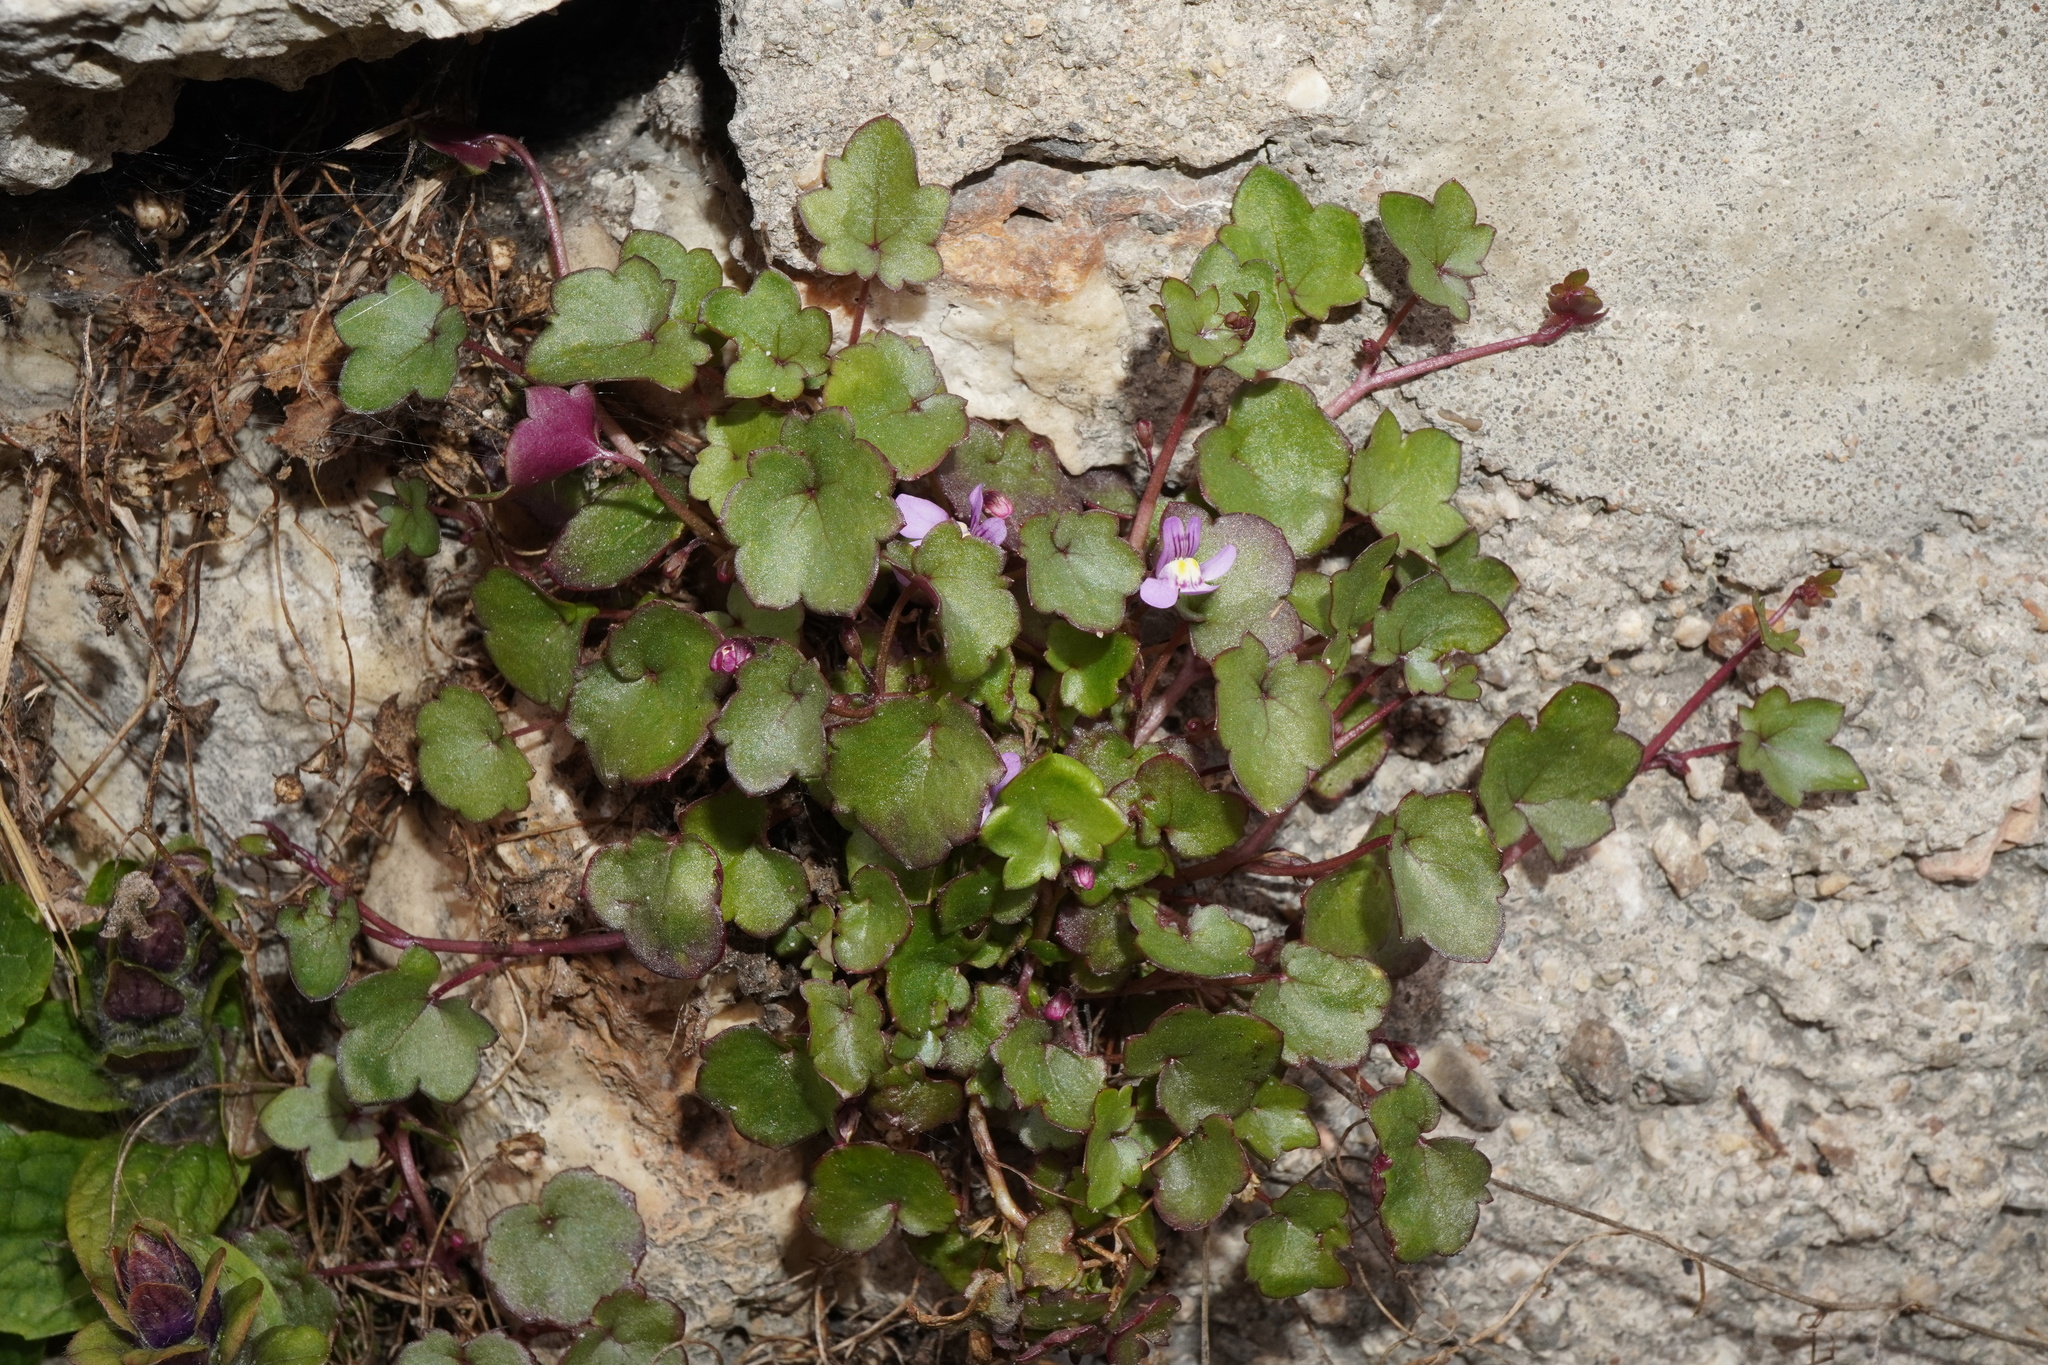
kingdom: Plantae
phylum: Tracheophyta
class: Magnoliopsida
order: Lamiales
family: Plantaginaceae
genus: Cymbalaria
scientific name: Cymbalaria muralis
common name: Ivy-leaved toadflax
